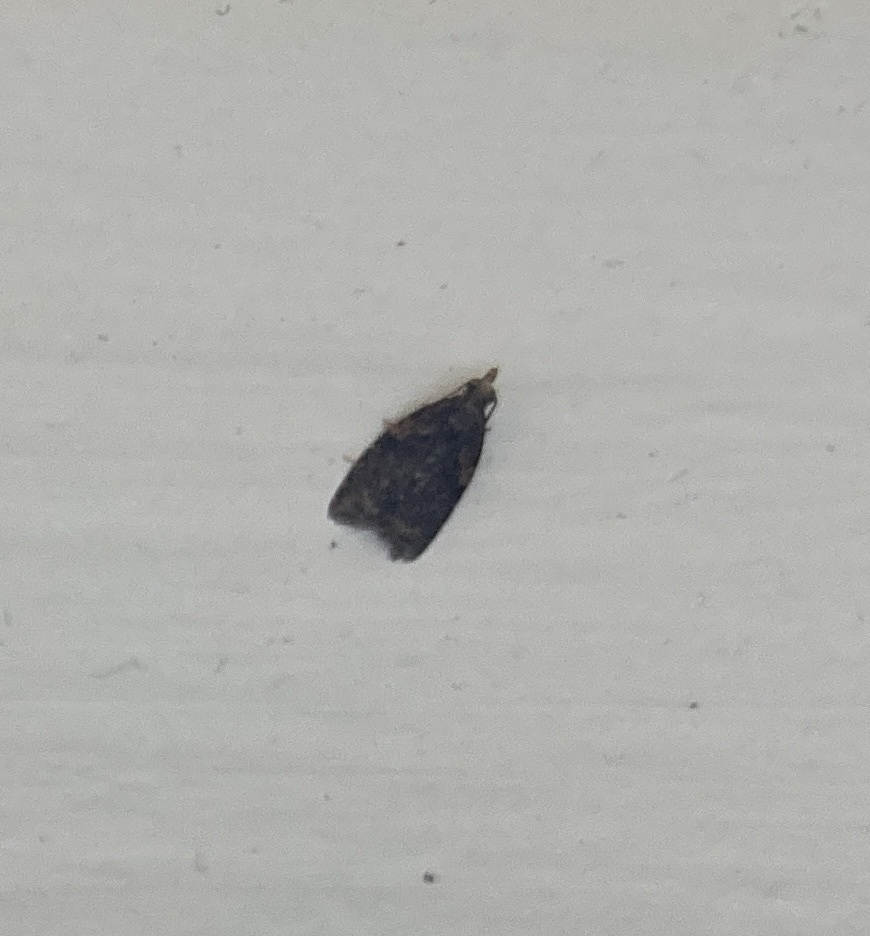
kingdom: Animalia
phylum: Arthropoda
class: Insecta
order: Lepidoptera
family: Tortricidae
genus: Capua
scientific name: Capua intractana
